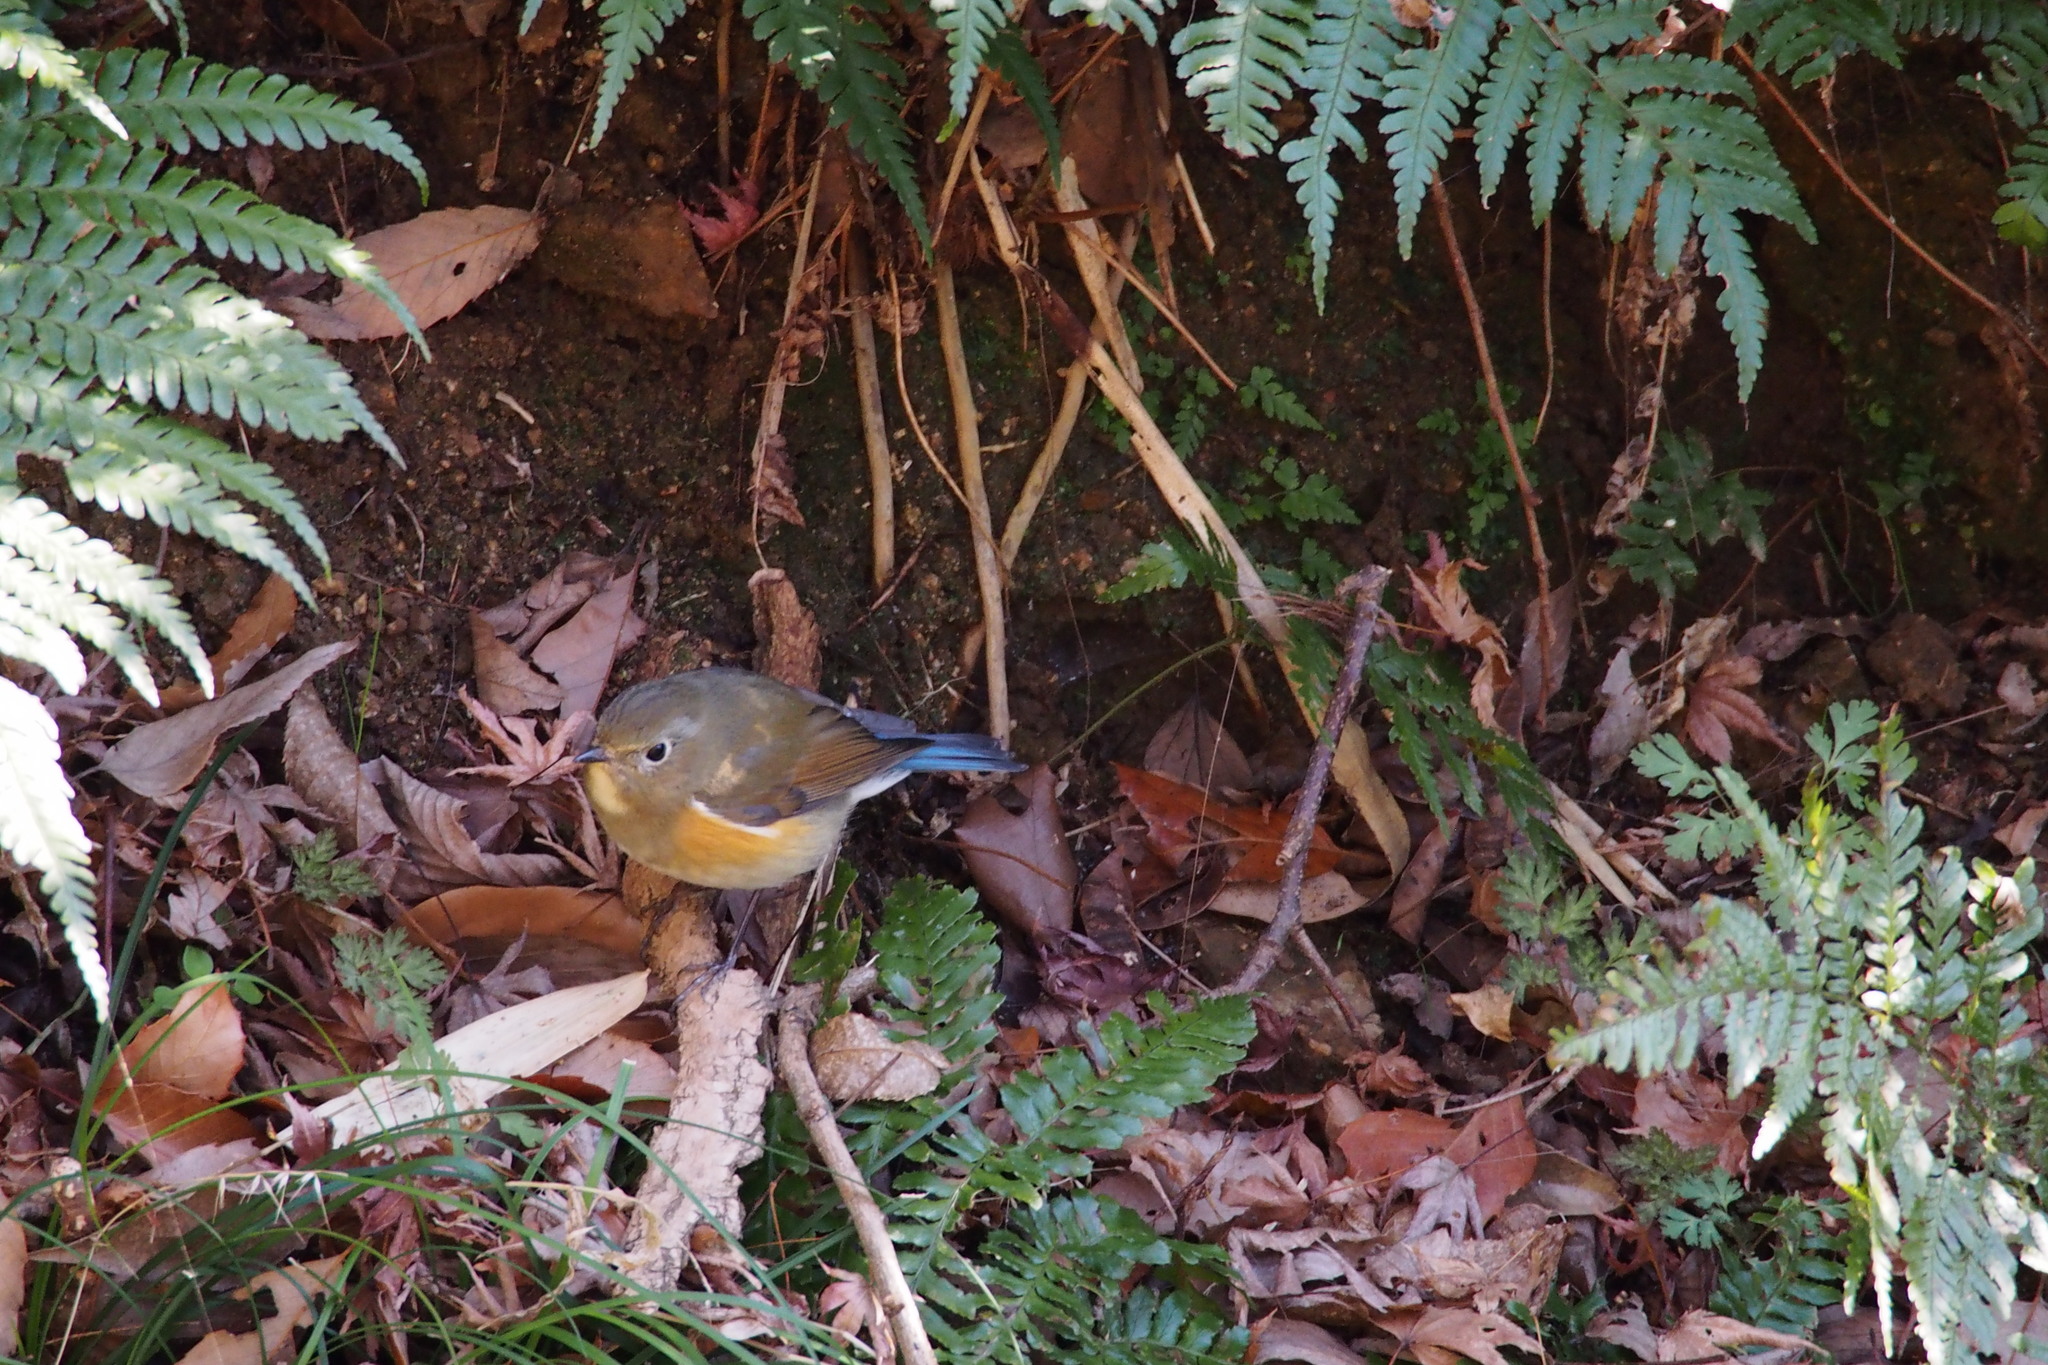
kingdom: Animalia
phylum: Chordata
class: Aves
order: Passeriformes
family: Muscicapidae
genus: Tarsiger
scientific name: Tarsiger cyanurus
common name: Red-flanked bluetail
